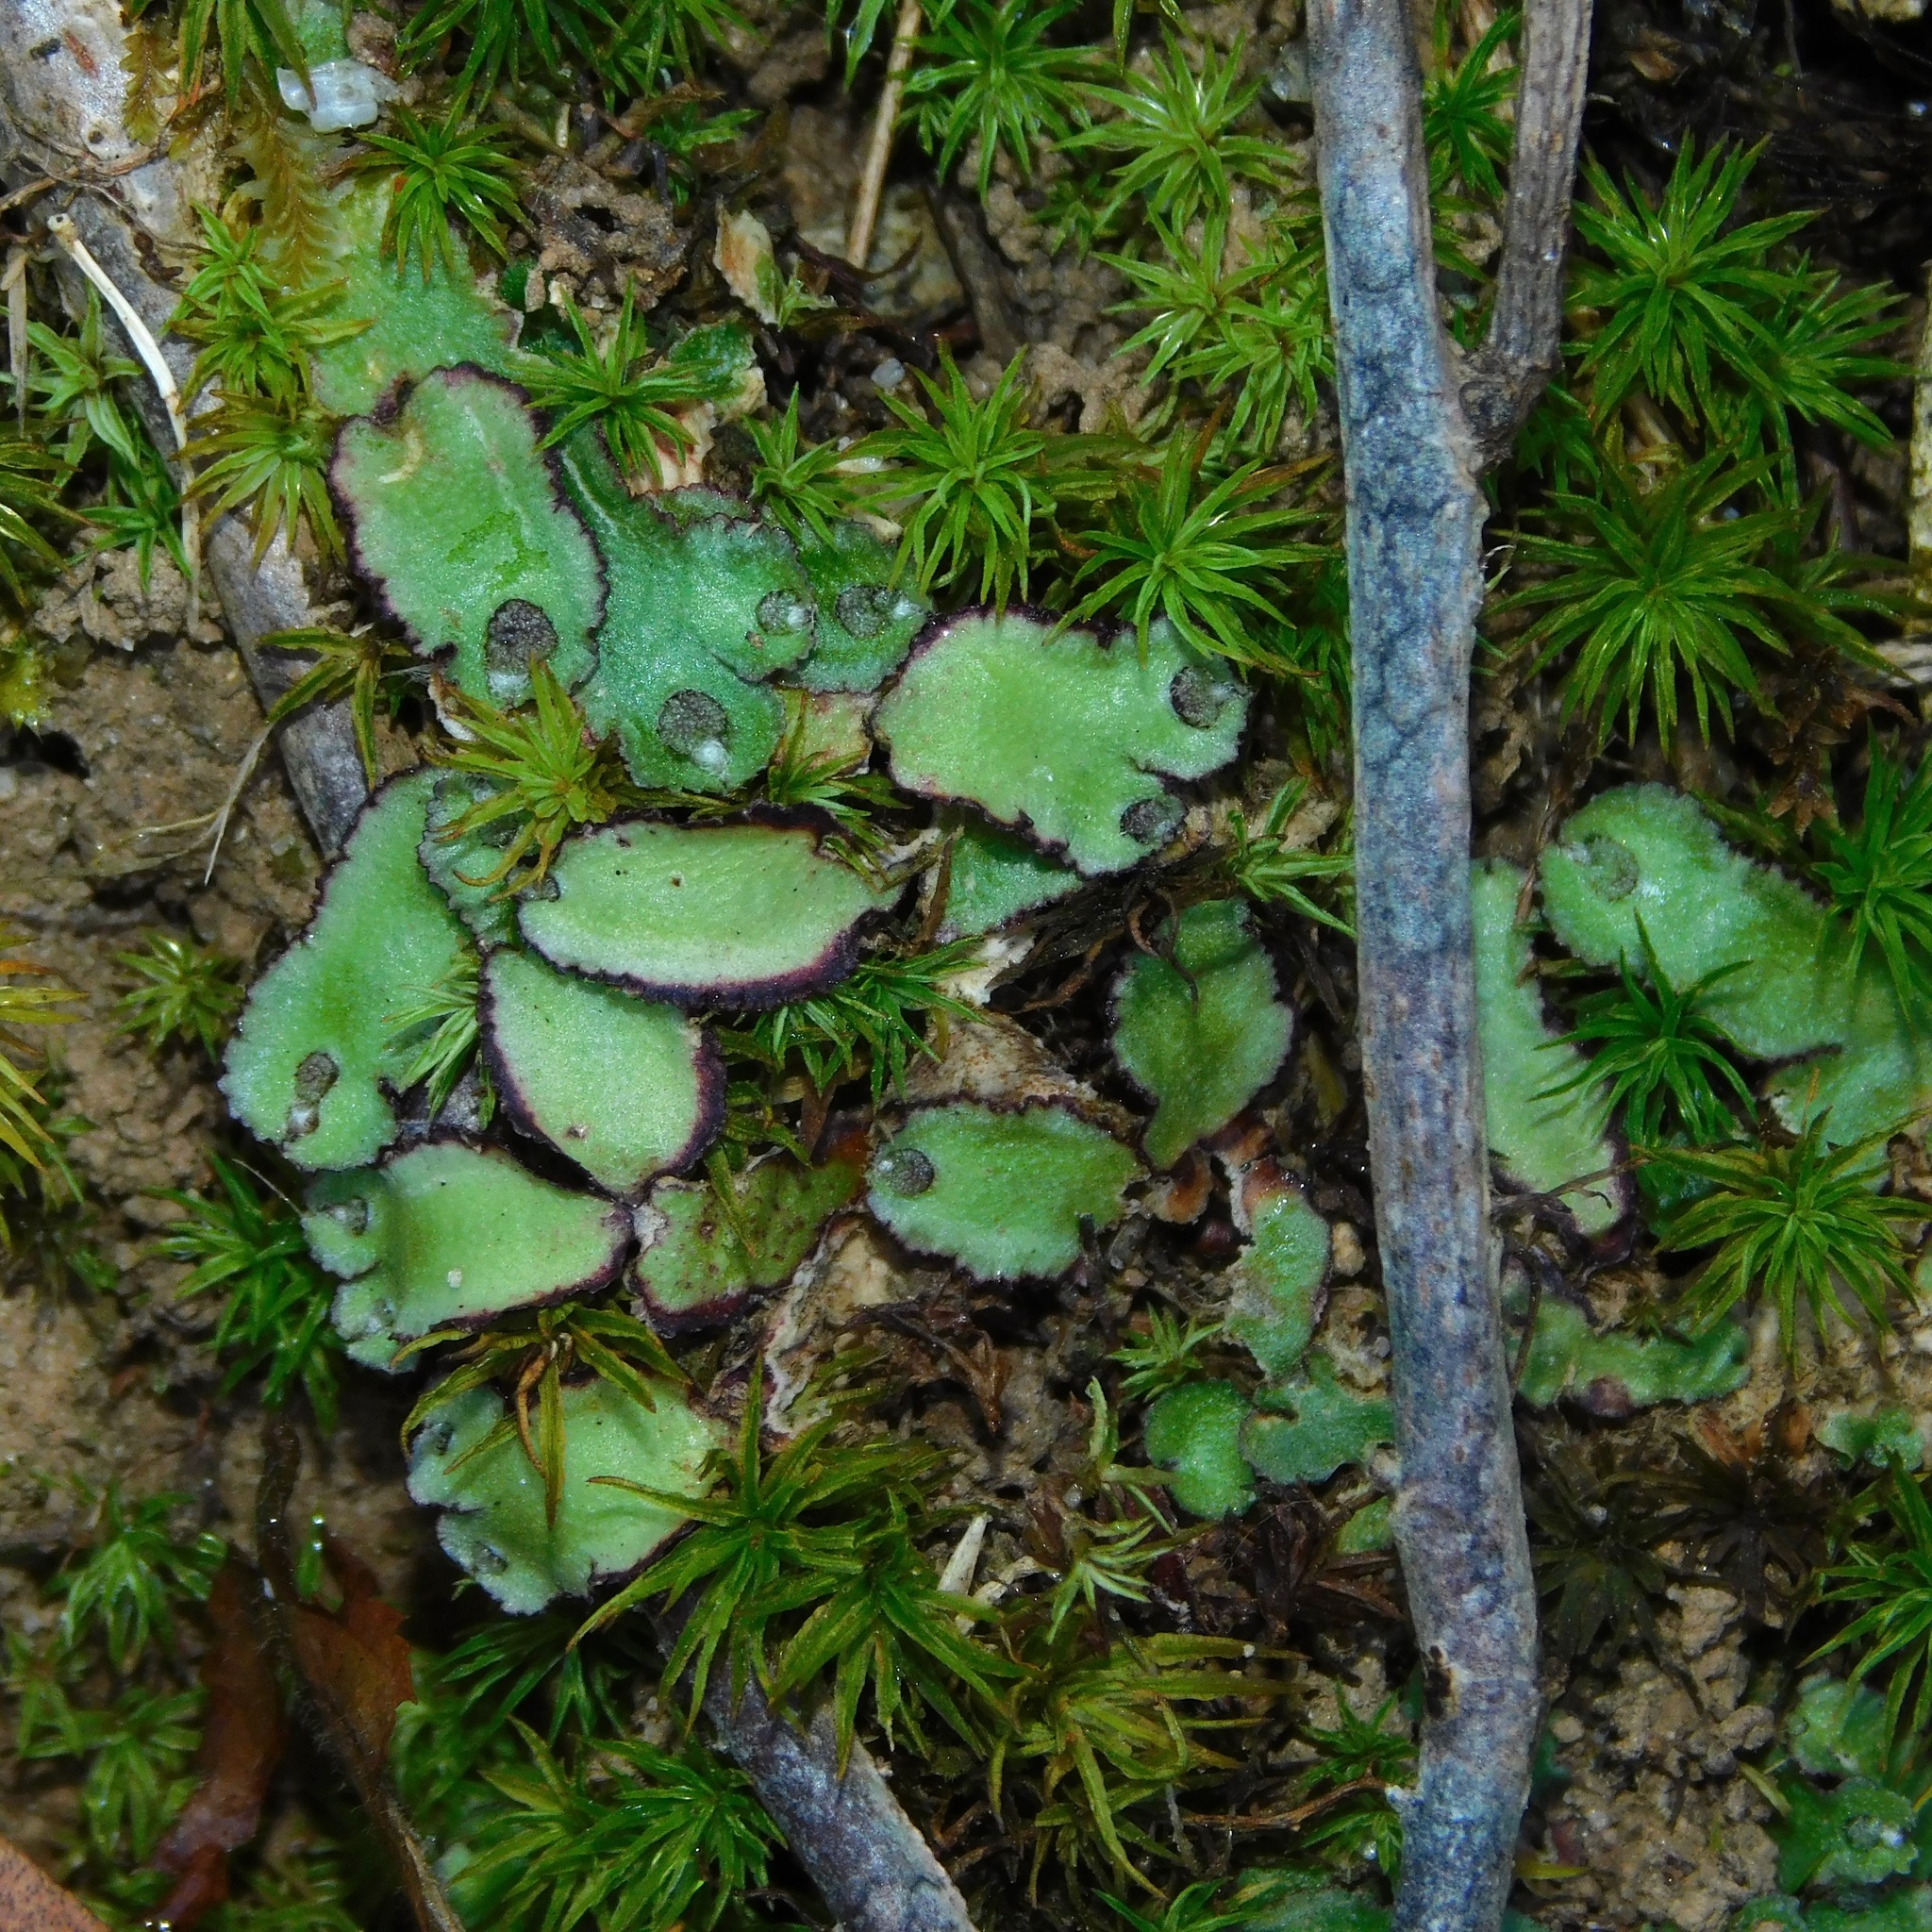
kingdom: Plantae
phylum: Marchantiophyta
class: Marchantiopsida
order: Marchantiales
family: Aytoniaceae
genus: Reboulia
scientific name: Reboulia hemisphaerica
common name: Purple-margined liverwort
